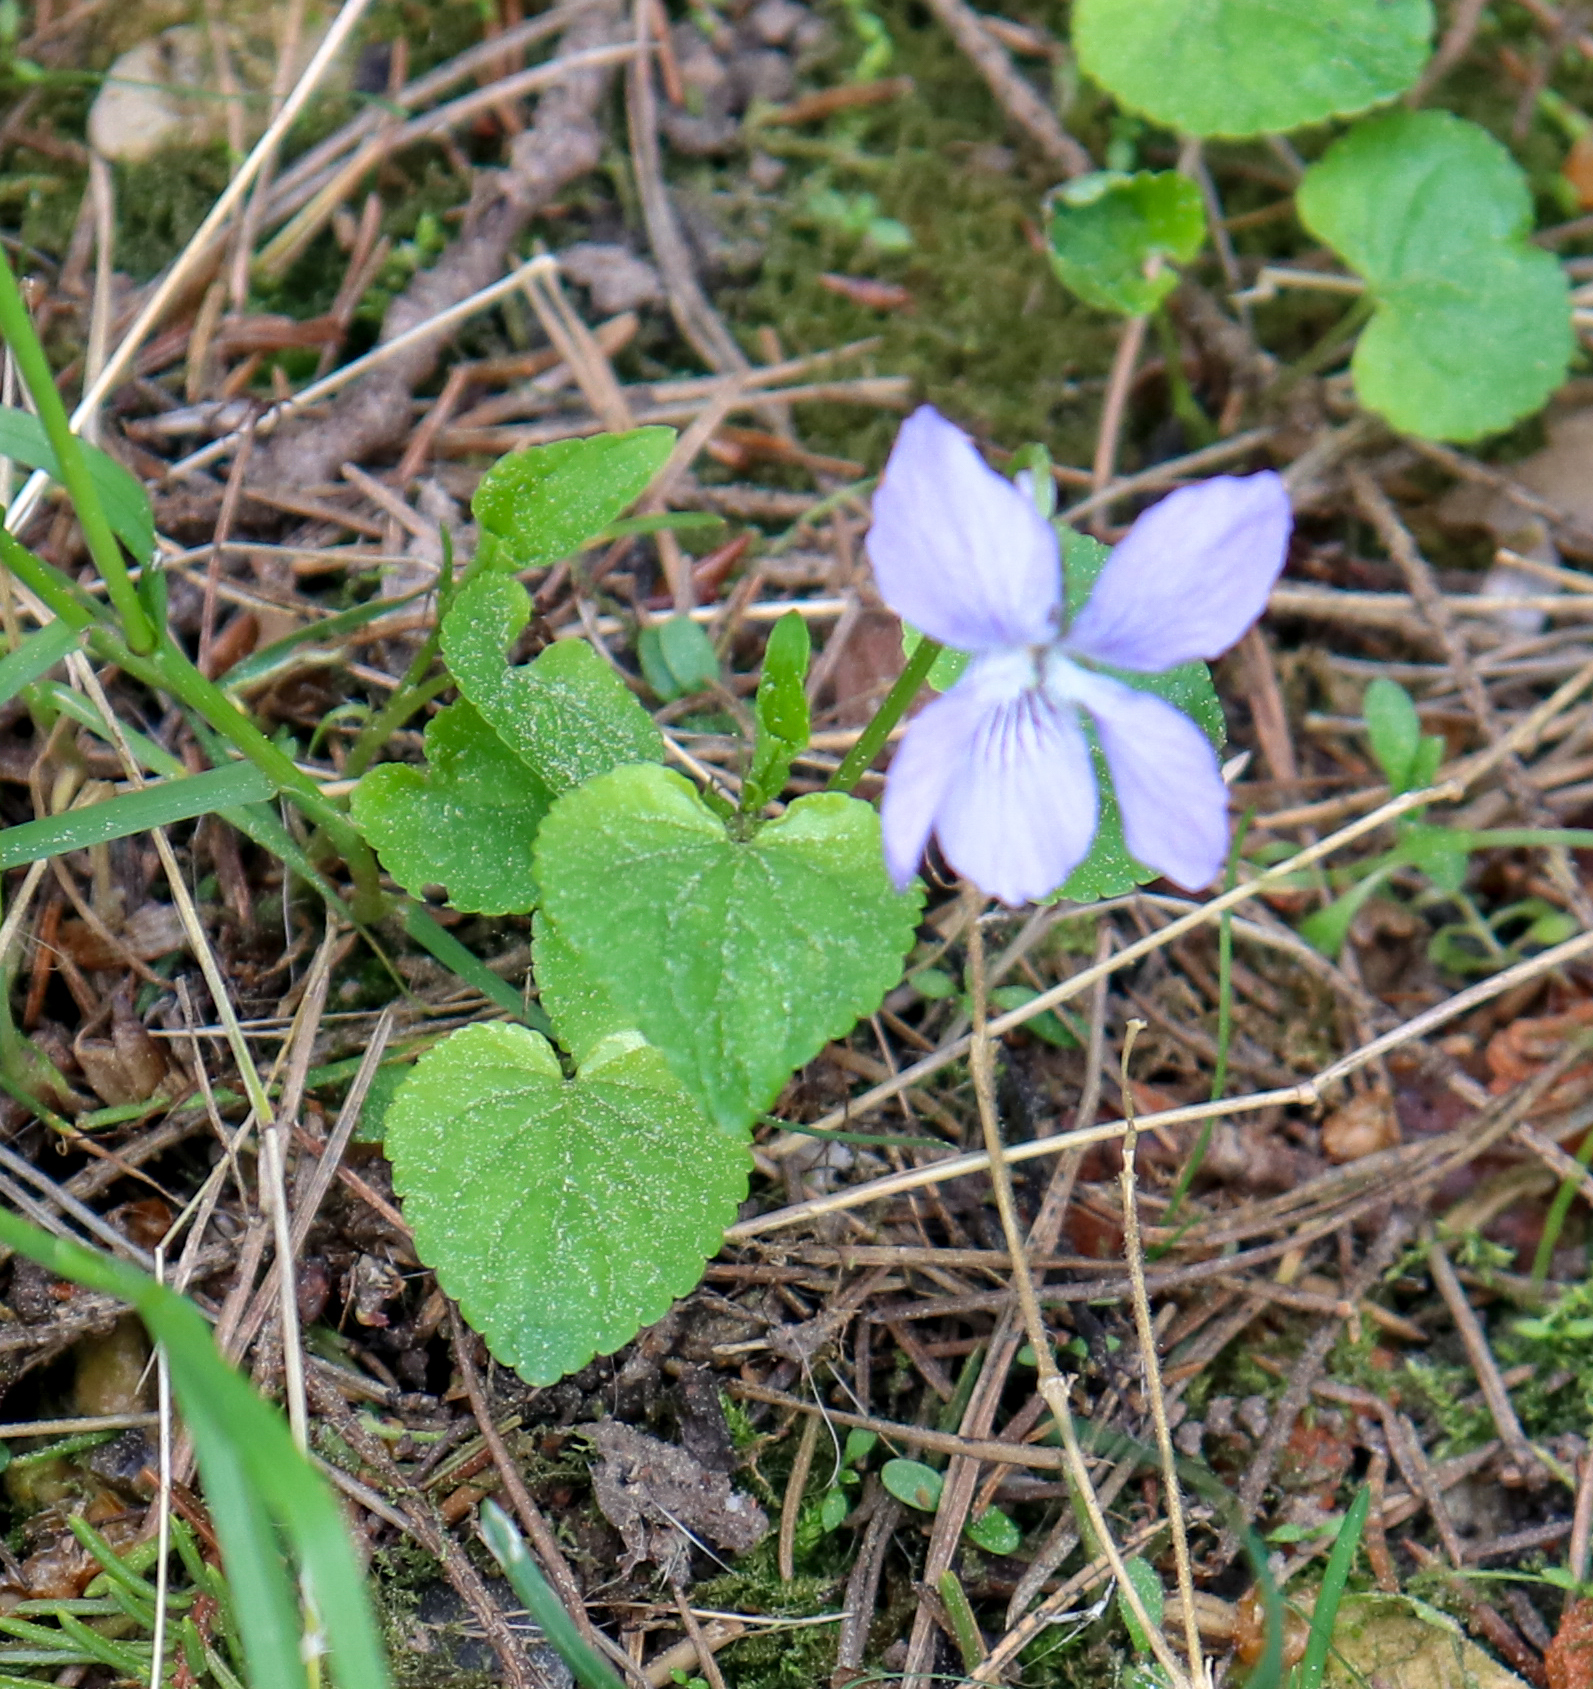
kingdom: Plantae
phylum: Tracheophyta
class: Magnoliopsida
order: Malpighiales
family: Violaceae
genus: Viola
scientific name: Viola riviniana
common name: Common dog-violet
